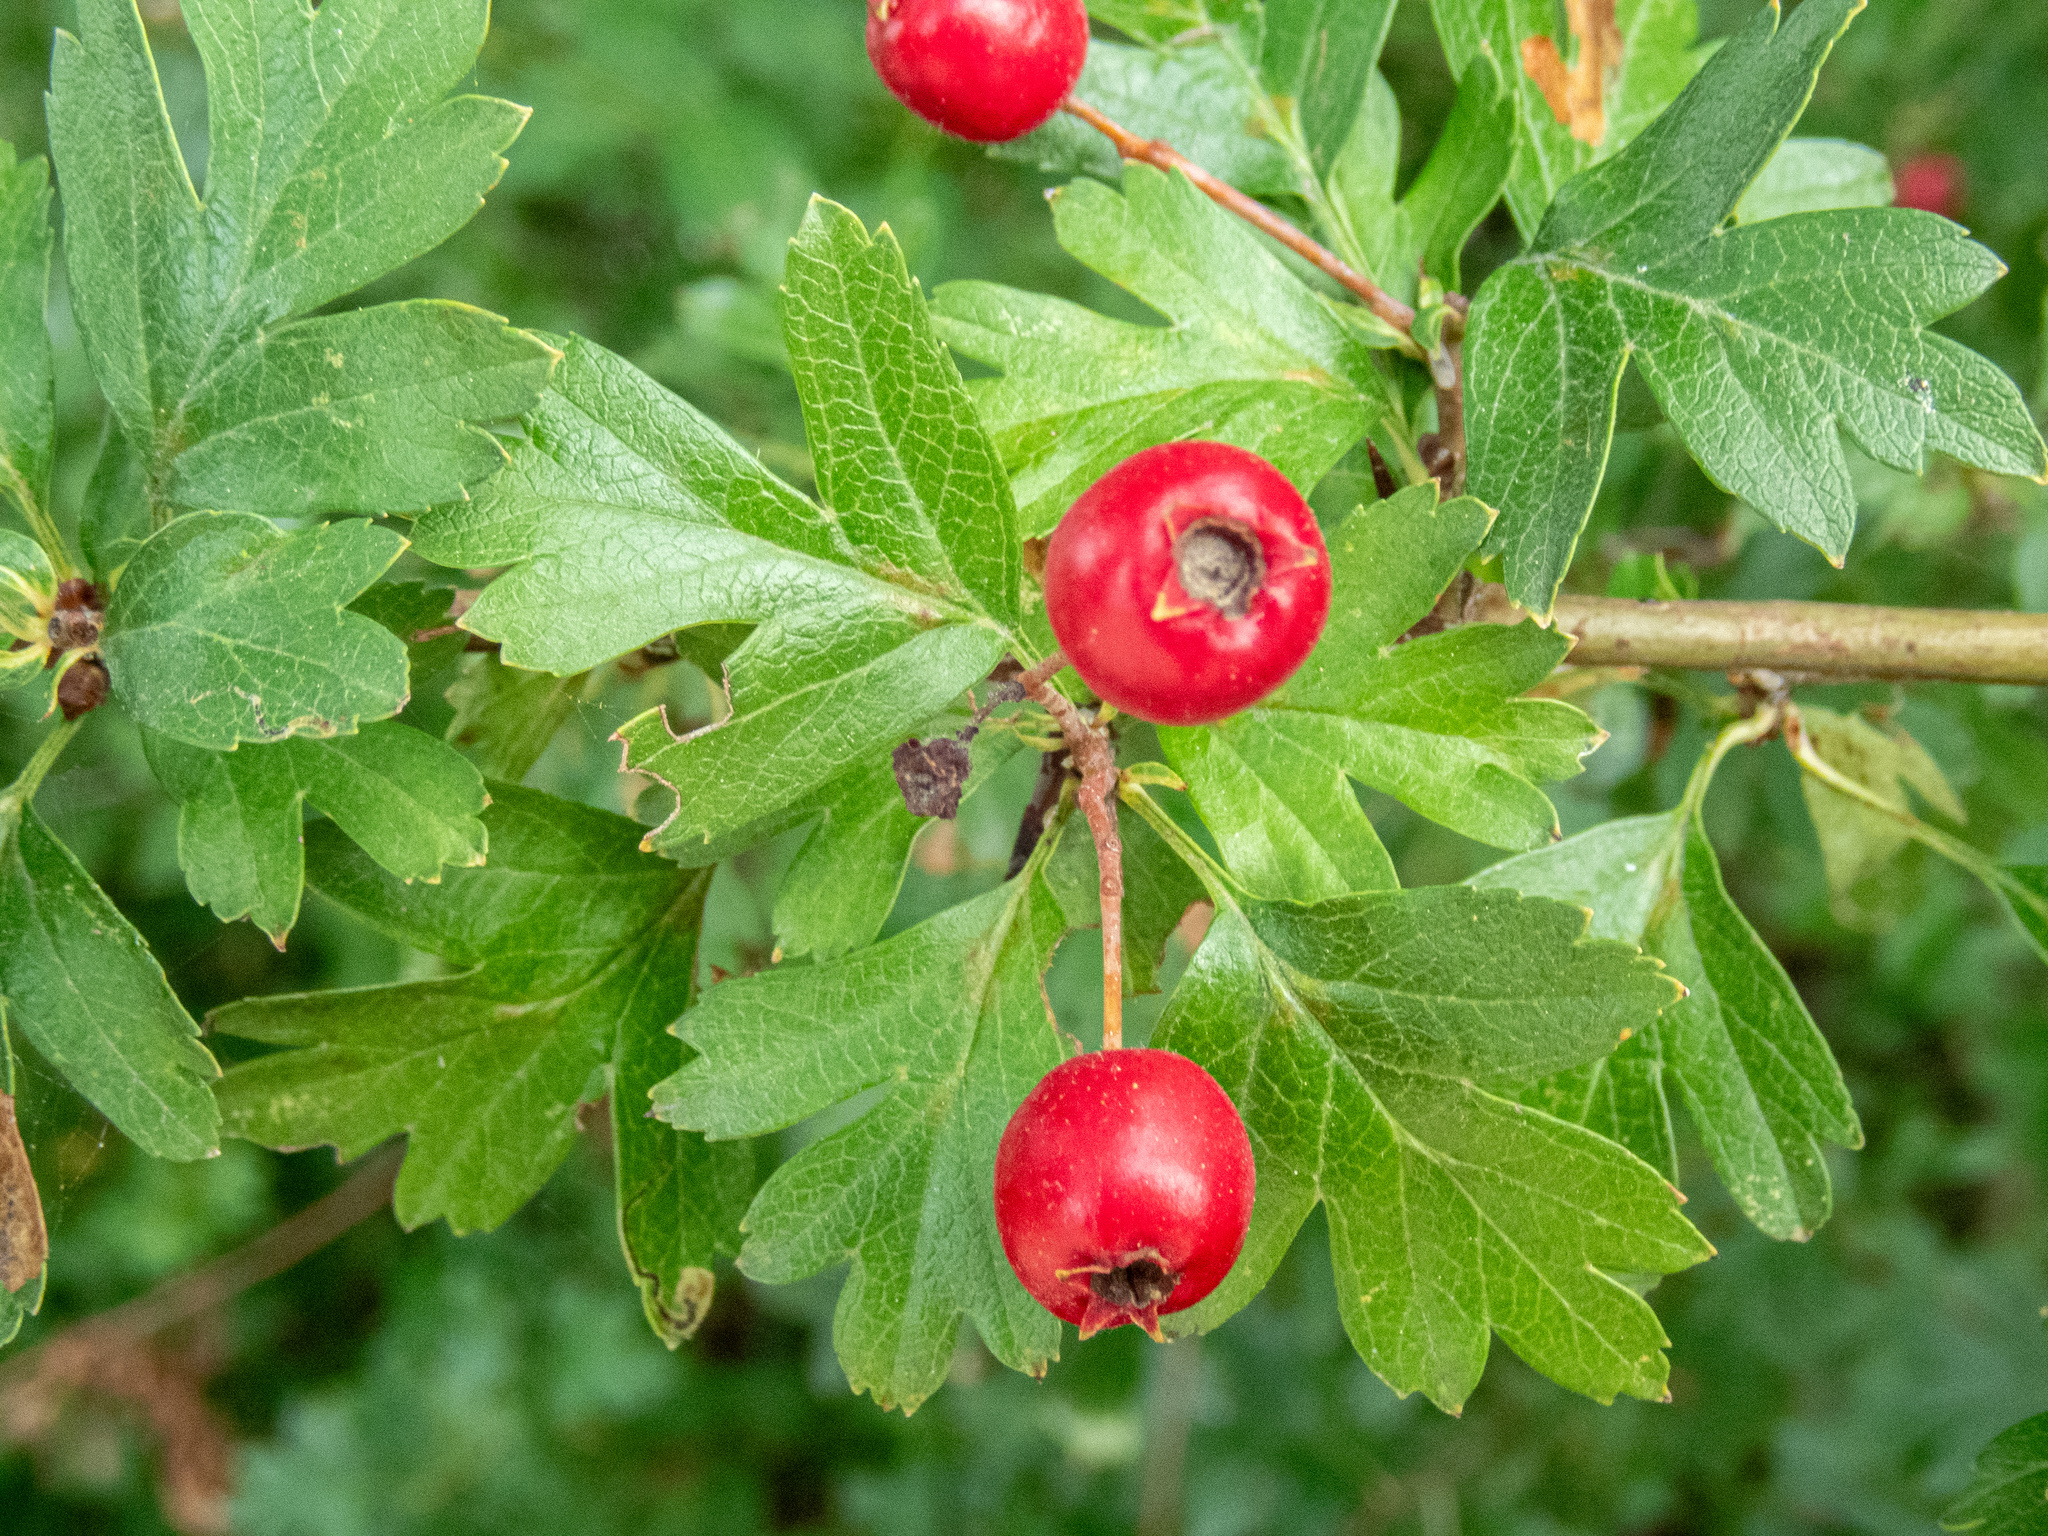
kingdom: Plantae
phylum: Tracheophyta
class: Magnoliopsida
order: Rosales
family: Rosaceae
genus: Crataegus
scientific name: Crataegus monogyna
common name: Hawthorn
